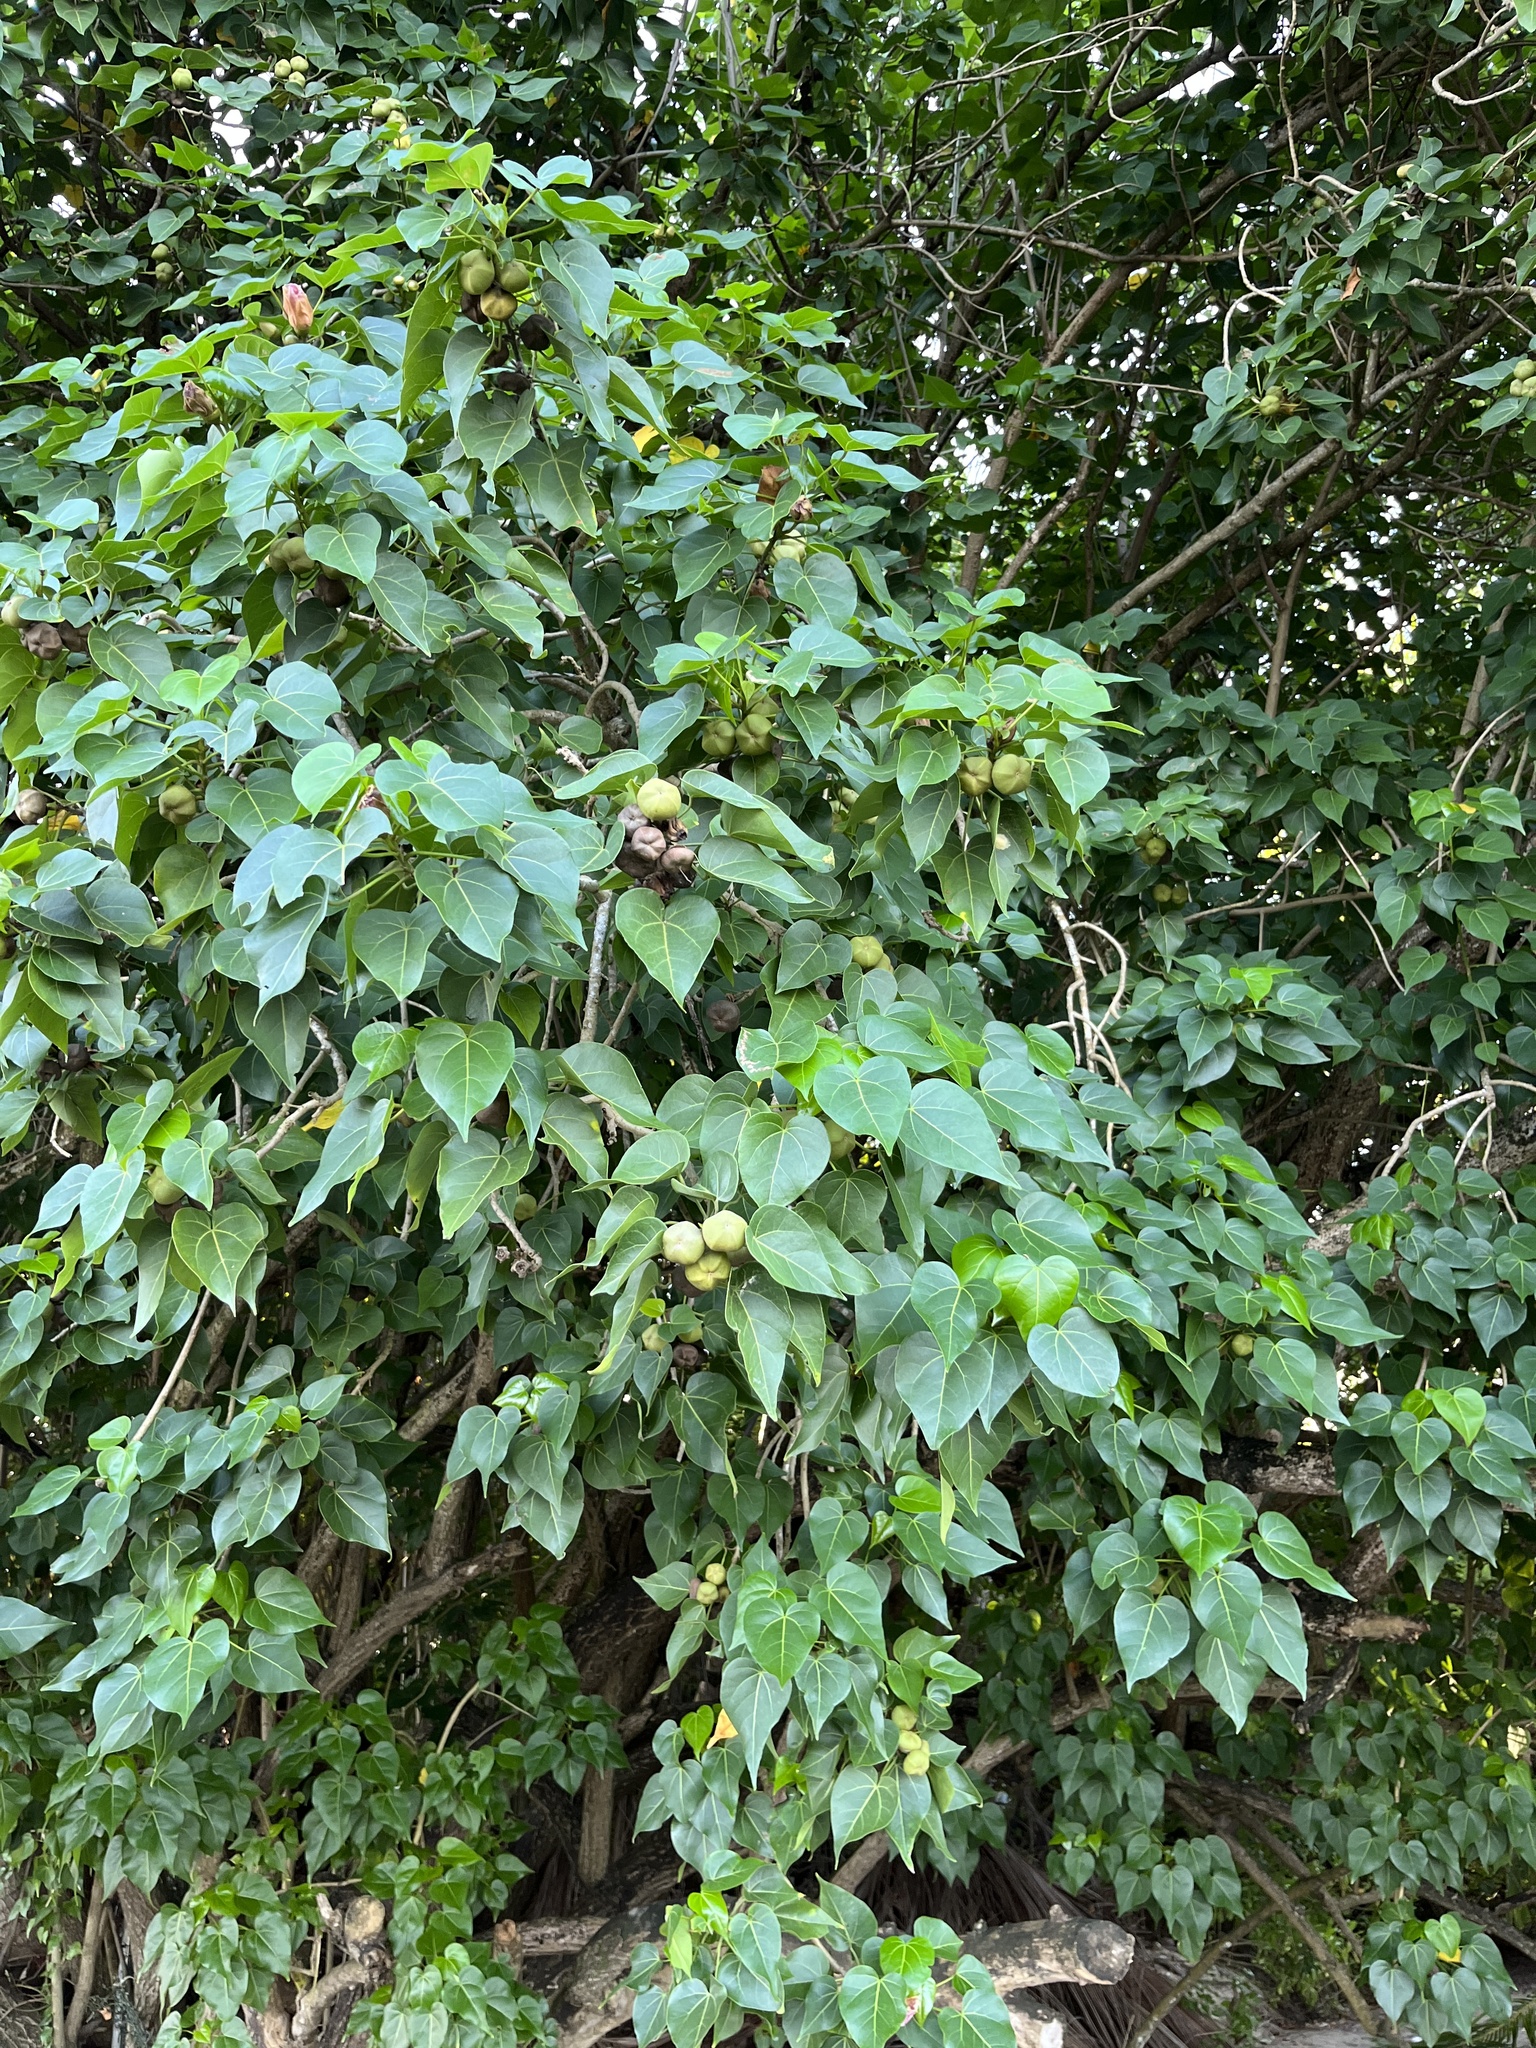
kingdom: Plantae
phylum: Tracheophyta
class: Magnoliopsida
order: Malvales
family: Malvaceae
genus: Thespesia
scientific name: Thespesia populnea
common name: Seaside mahoe
